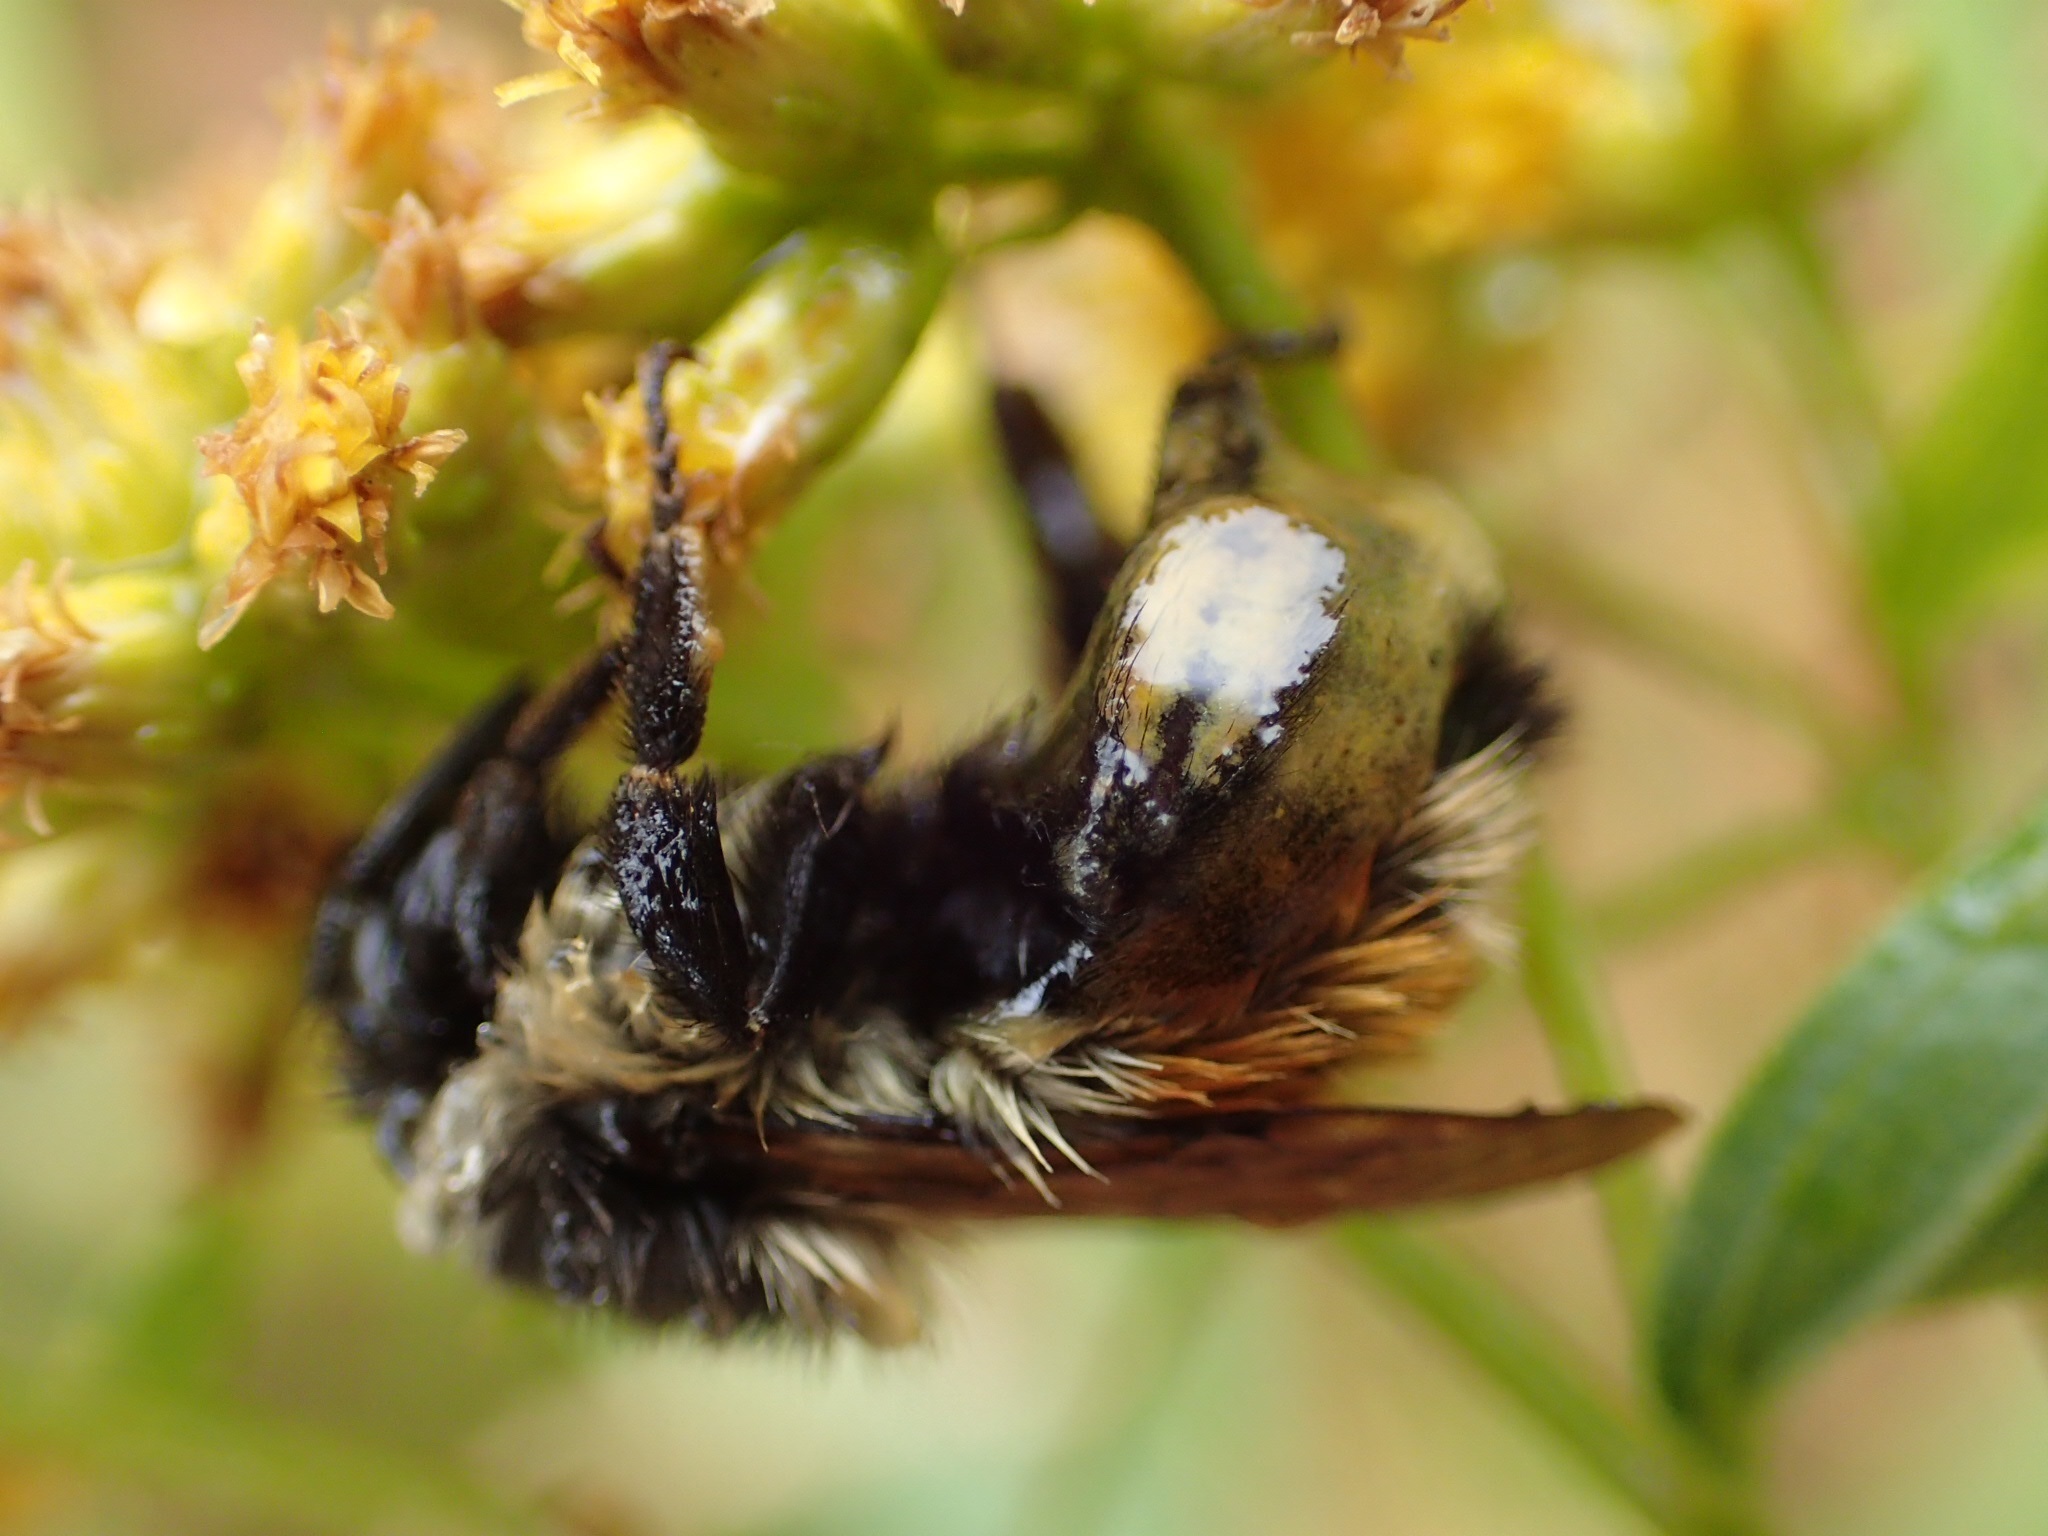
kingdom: Animalia
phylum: Arthropoda
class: Insecta
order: Hymenoptera
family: Apidae
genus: Bombus
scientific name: Bombus ternarius
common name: Tri-colored bumble bee
